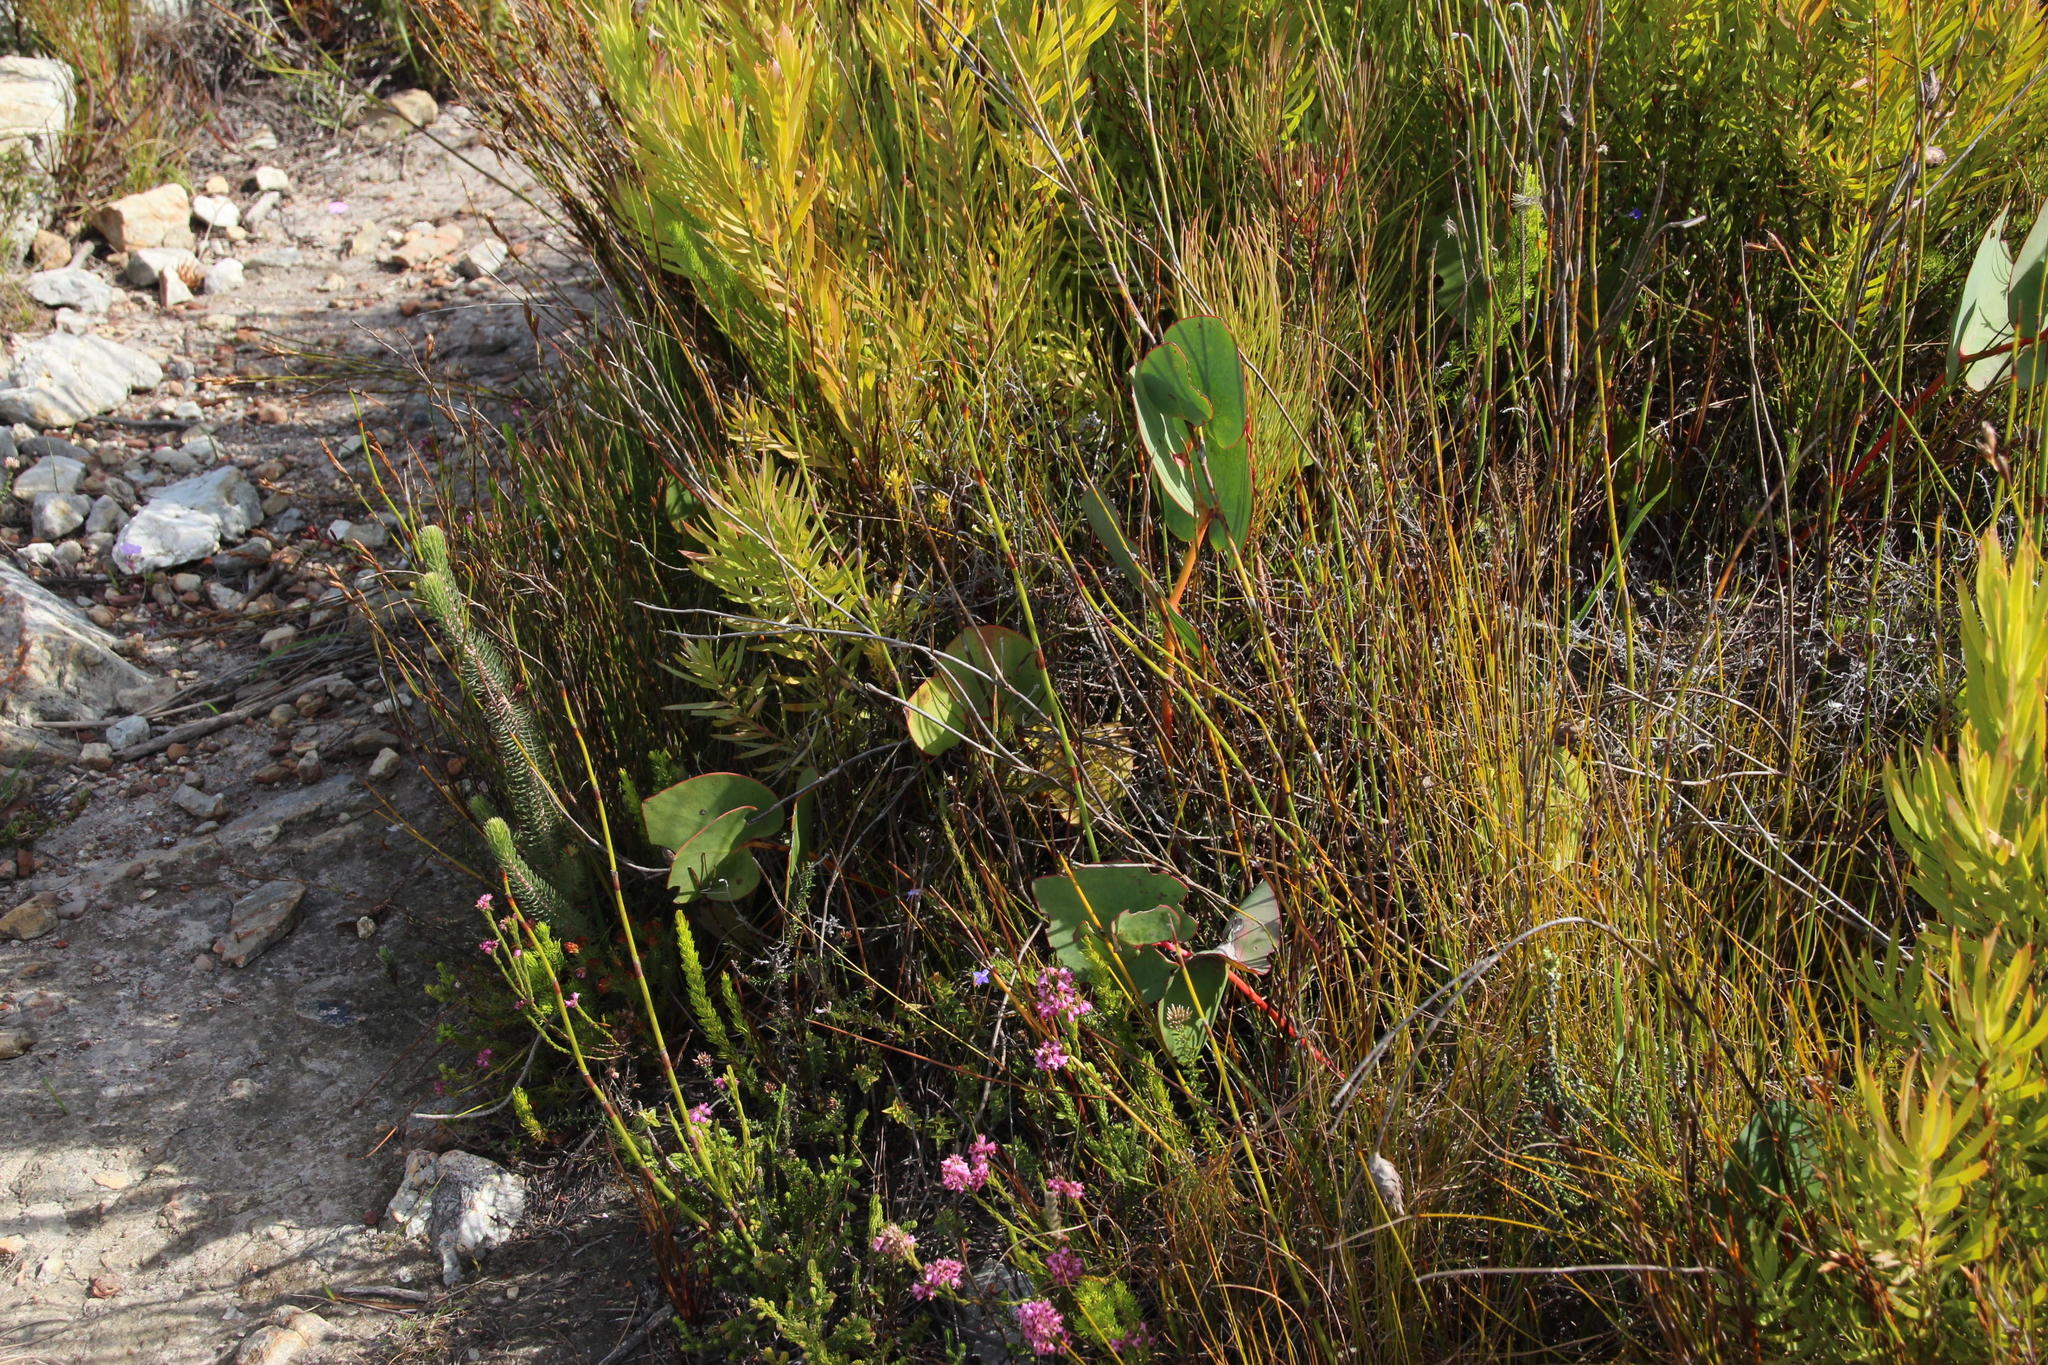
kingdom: Plantae
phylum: Tracheophyta
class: Magnoliopsida
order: Proteales
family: Proteaceae
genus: Protea
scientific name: Protea cordata
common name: Heart-leaf sugarbush
